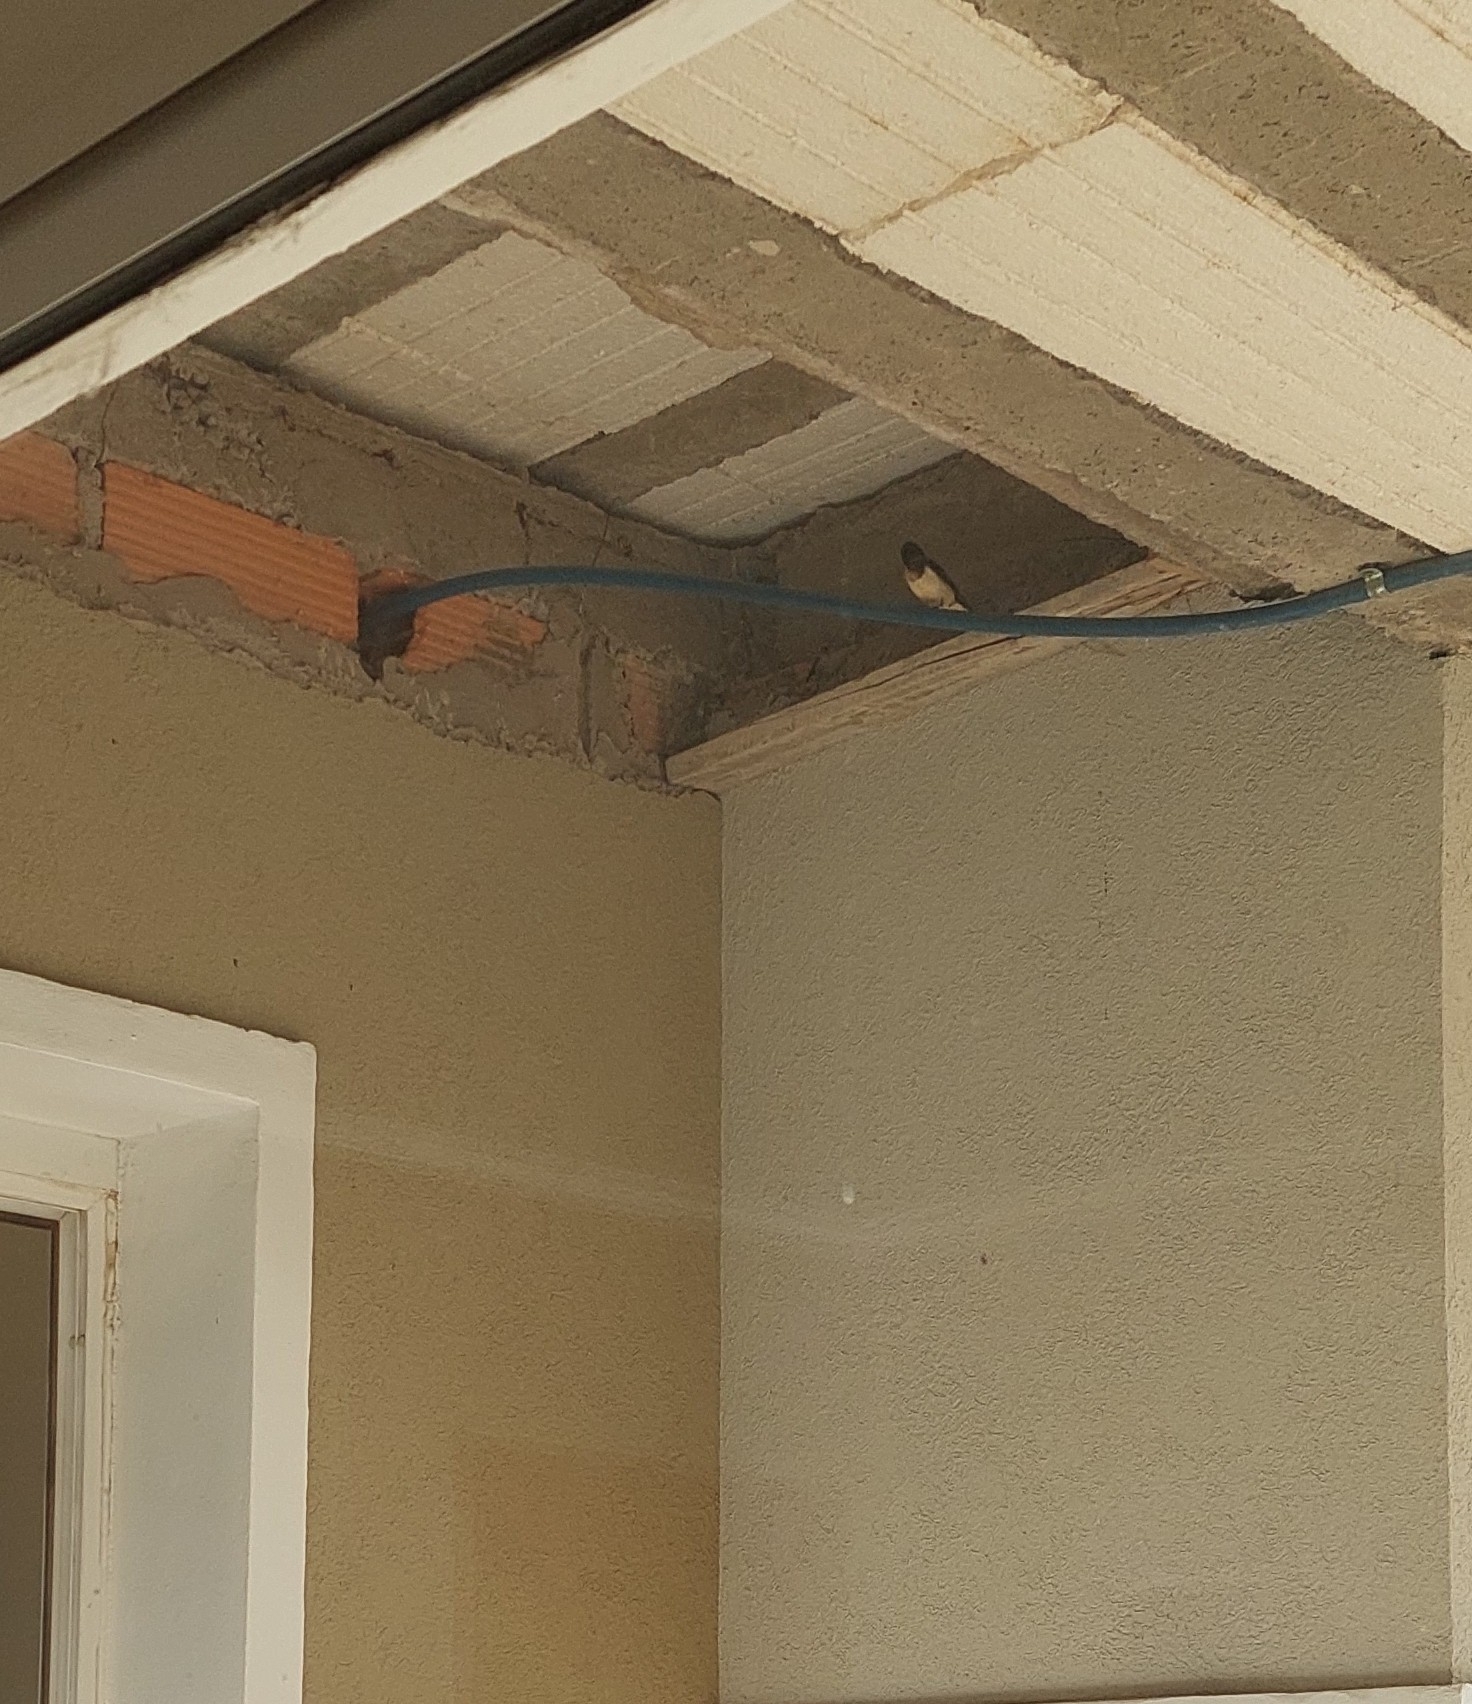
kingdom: Animalia
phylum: Chordata
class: Aves
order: Passeriformes
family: Hirundinidae
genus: Hirundo
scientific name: Hirundo rustica
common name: Barn swallow
